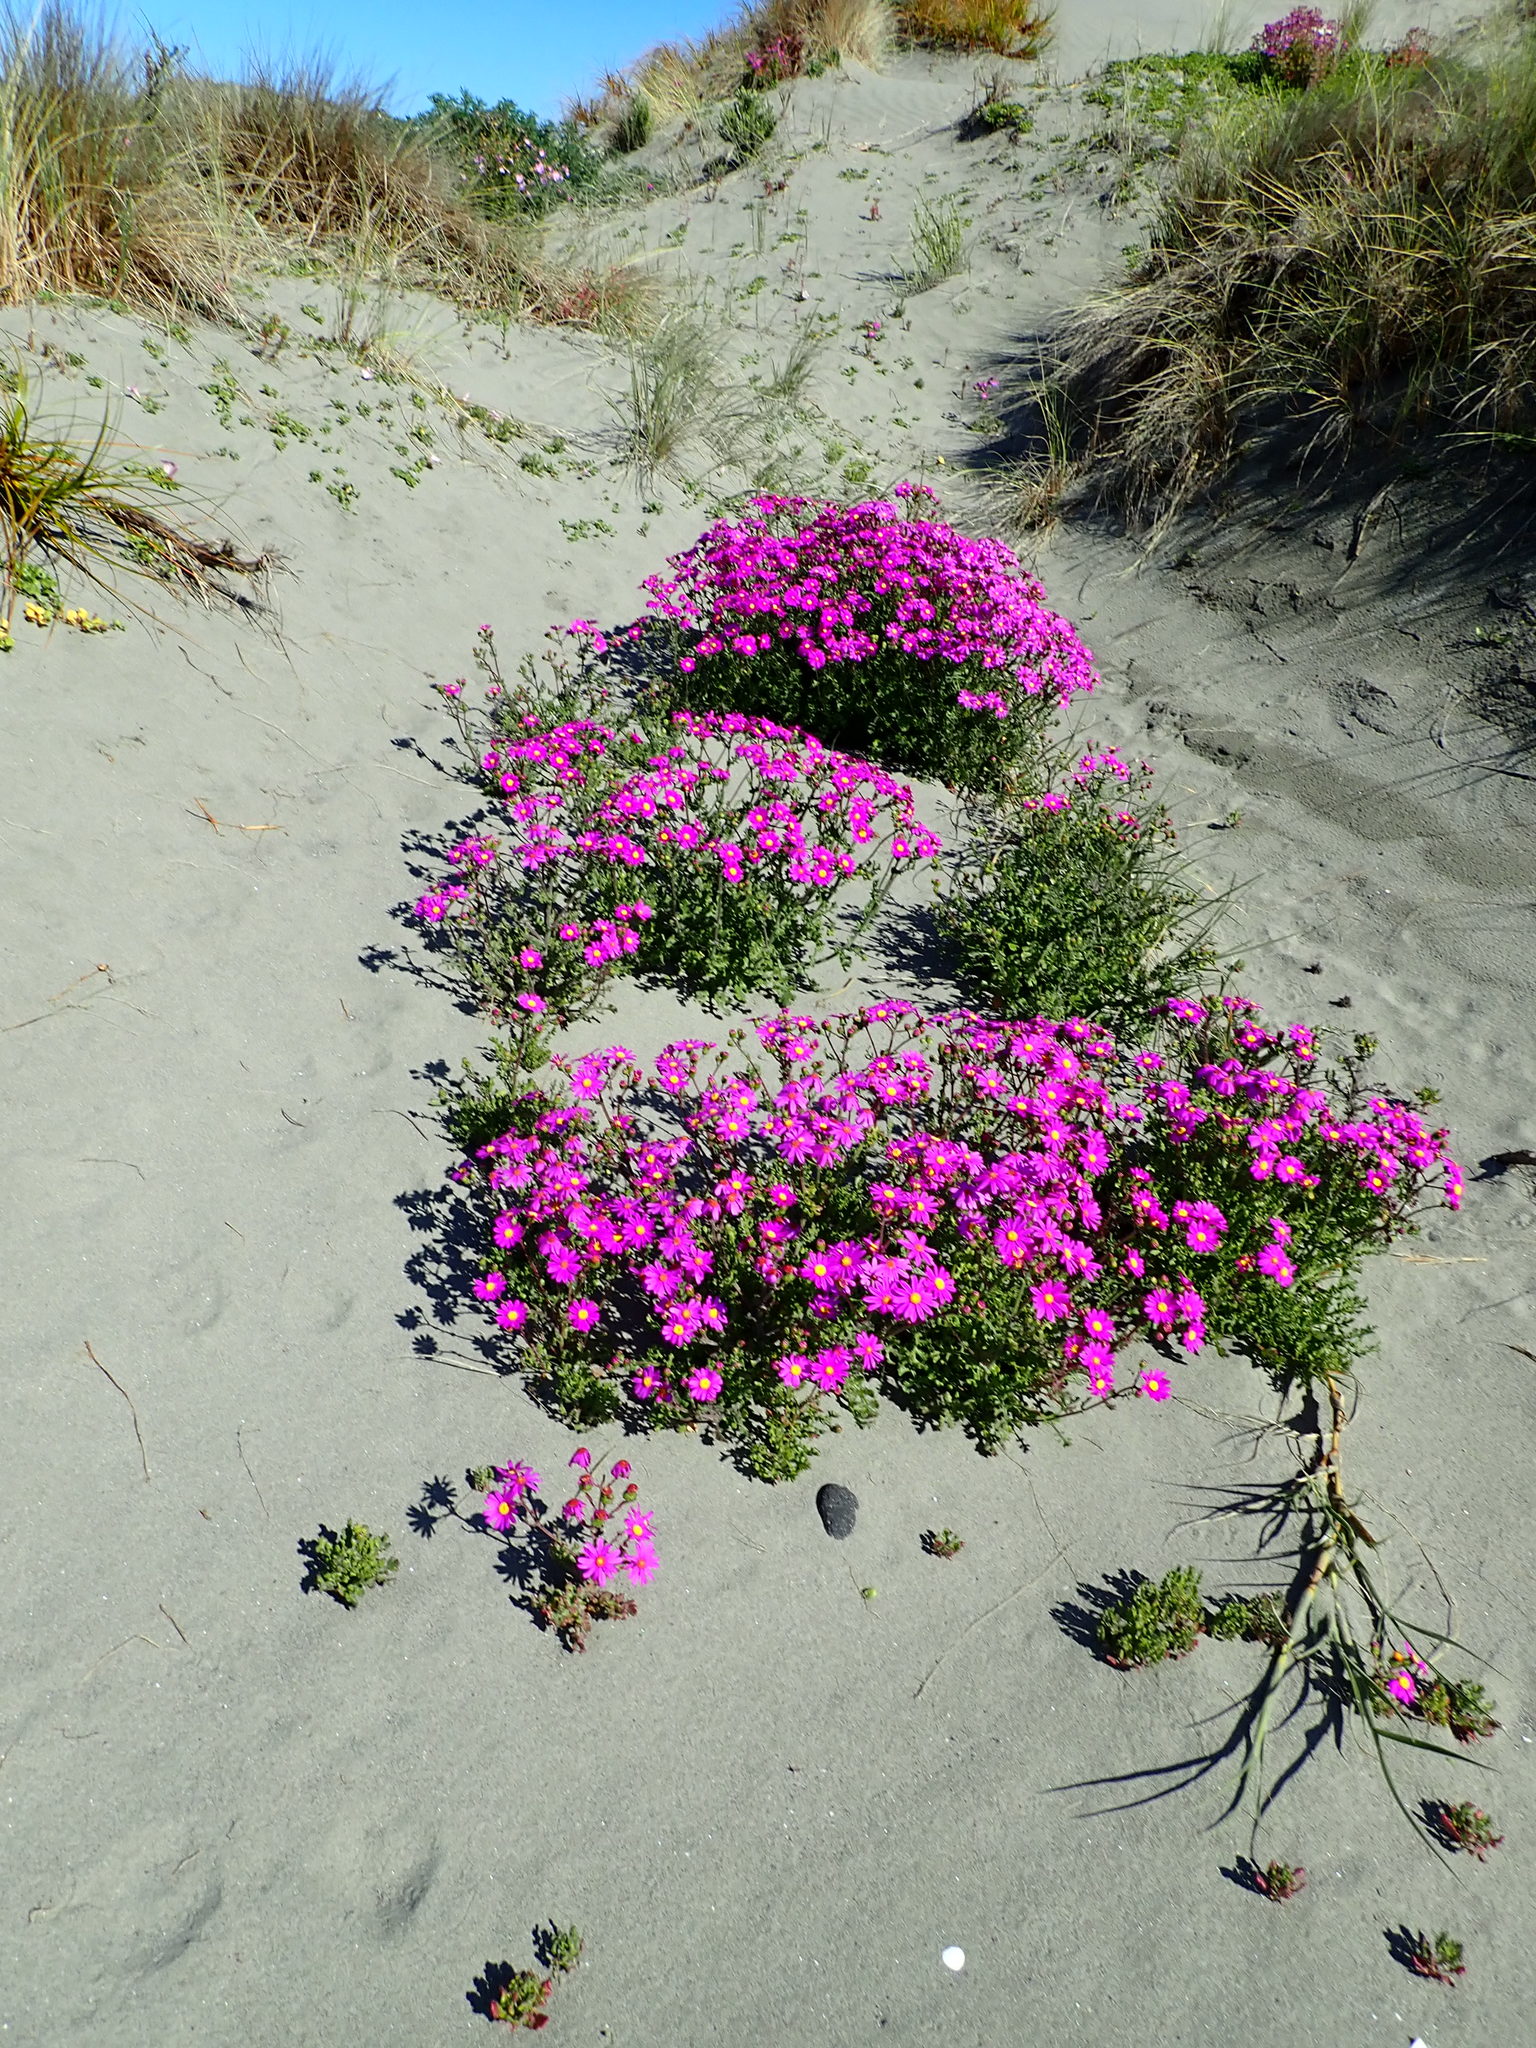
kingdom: Plantae
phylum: Tracheophyta
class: Magnoliopsida
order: Asterales
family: Asteraceae
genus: Senecio
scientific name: Senecio elegans
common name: Purple groundsel
